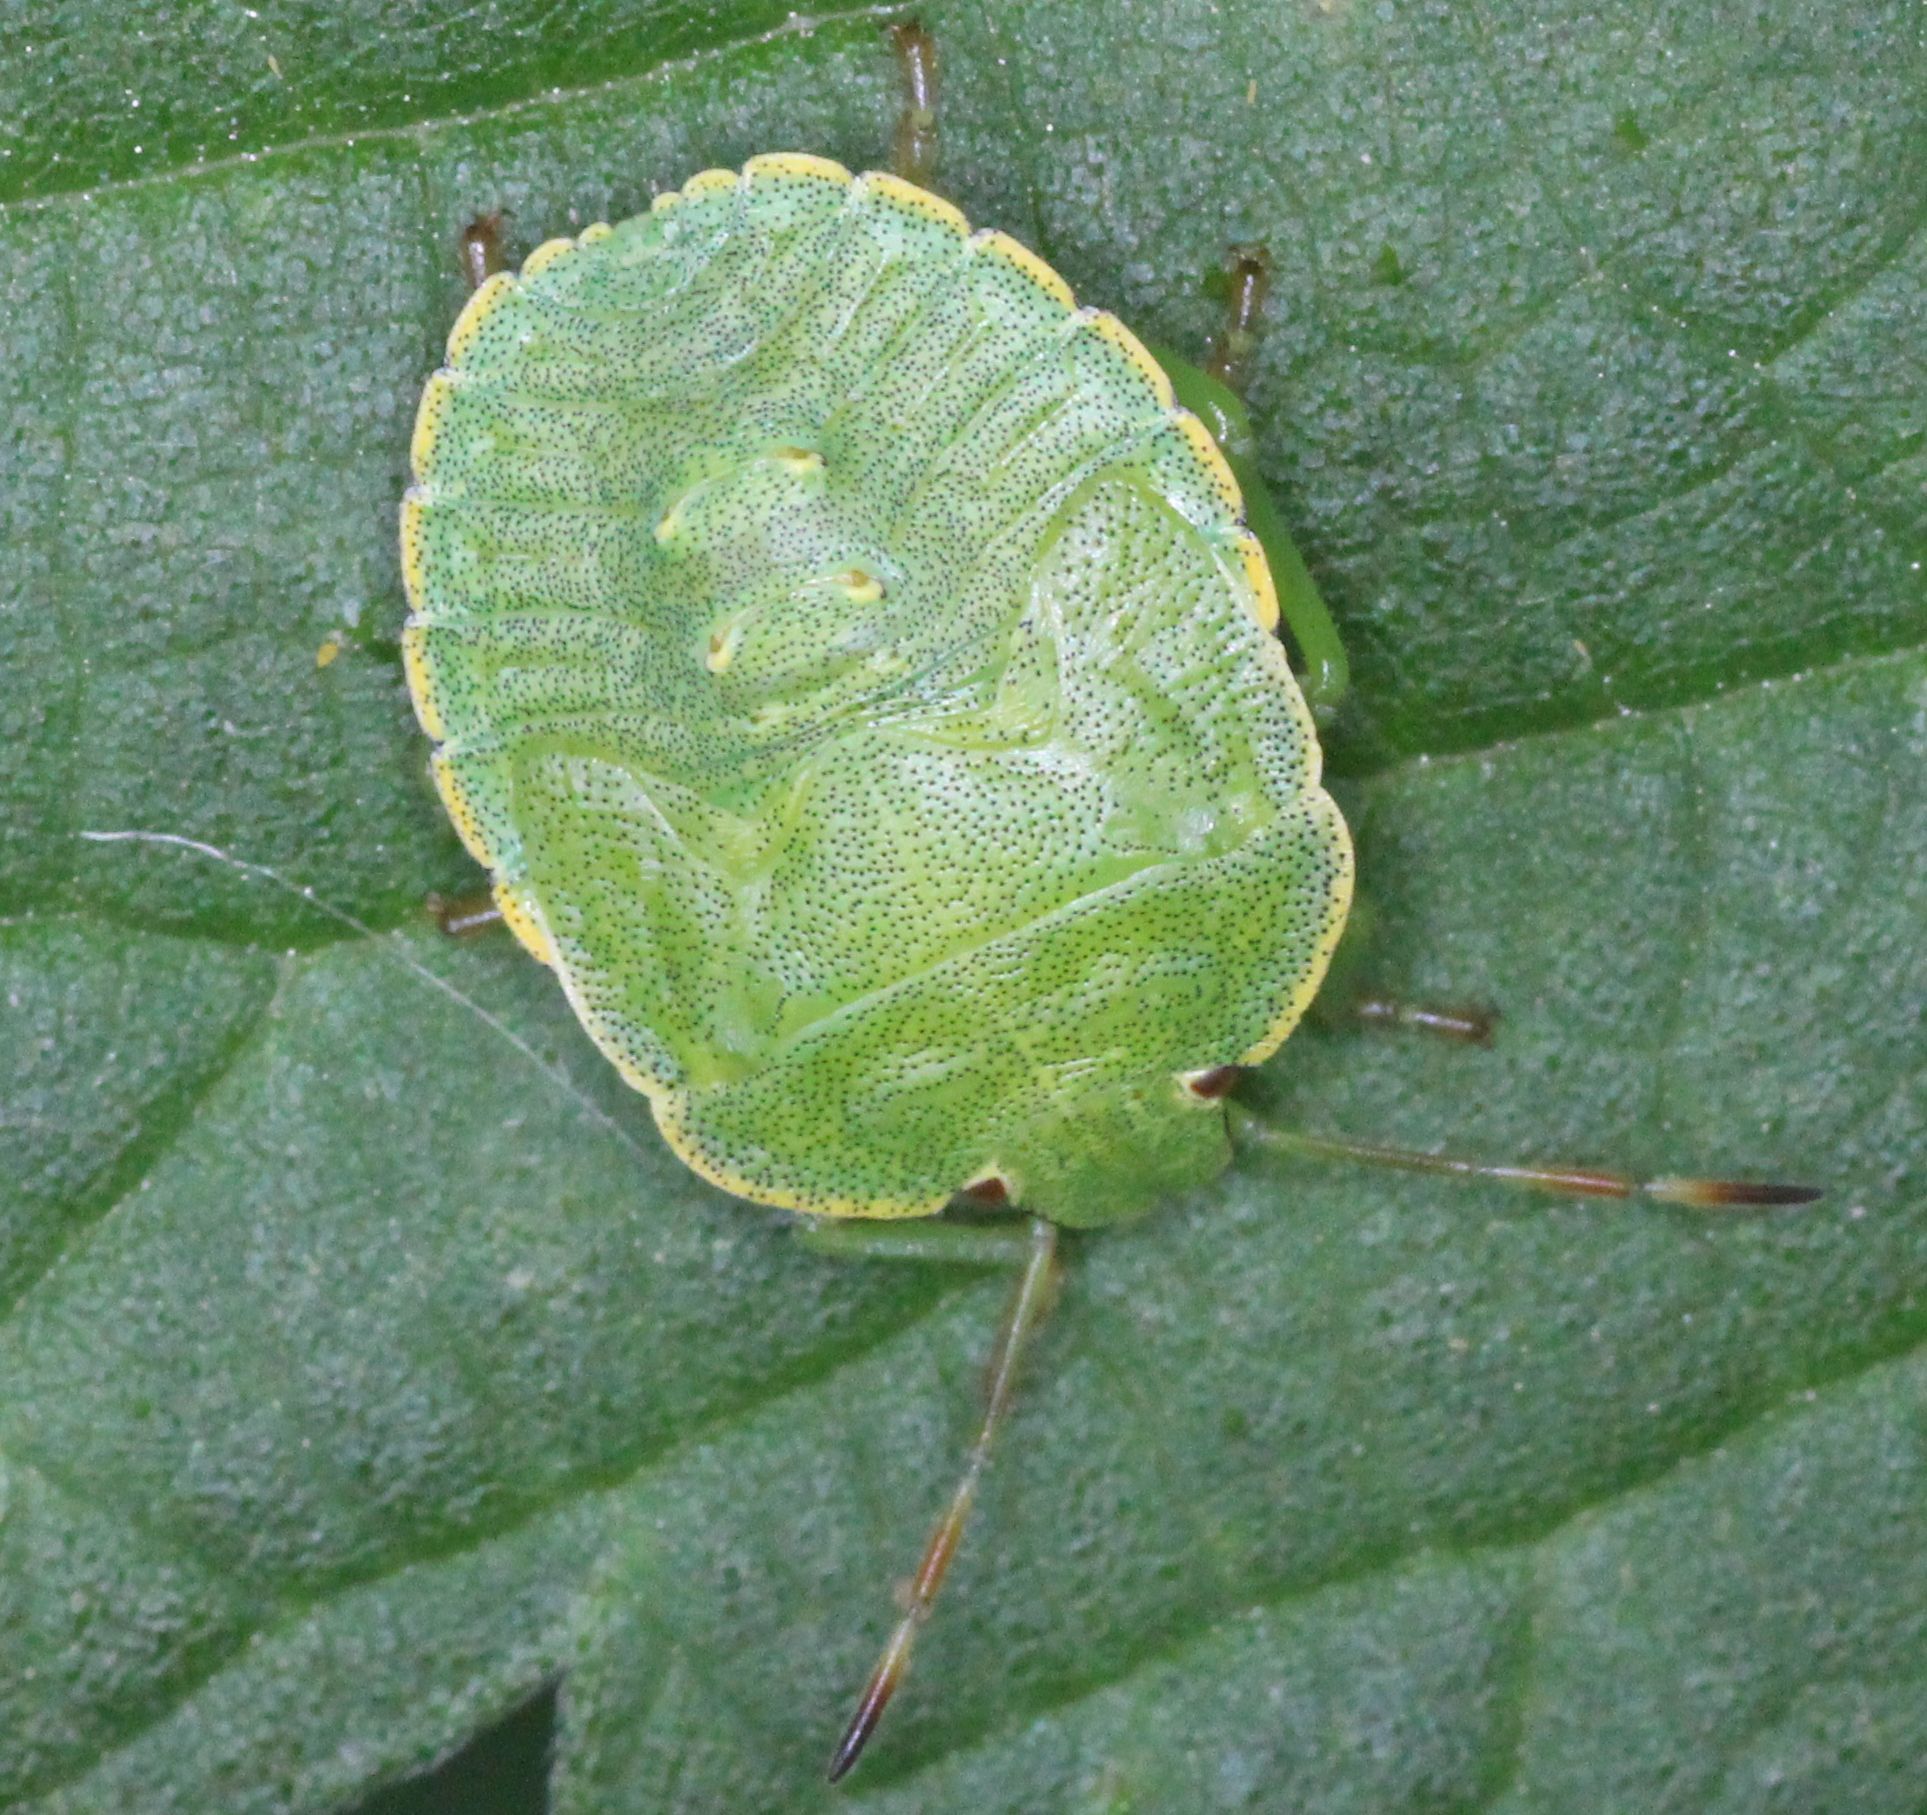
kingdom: Animalia
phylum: Arthropoda
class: Insecta
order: Hemiptera
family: Pentatomidae
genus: Palomena
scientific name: Palomena prasina
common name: Green shieldbug
